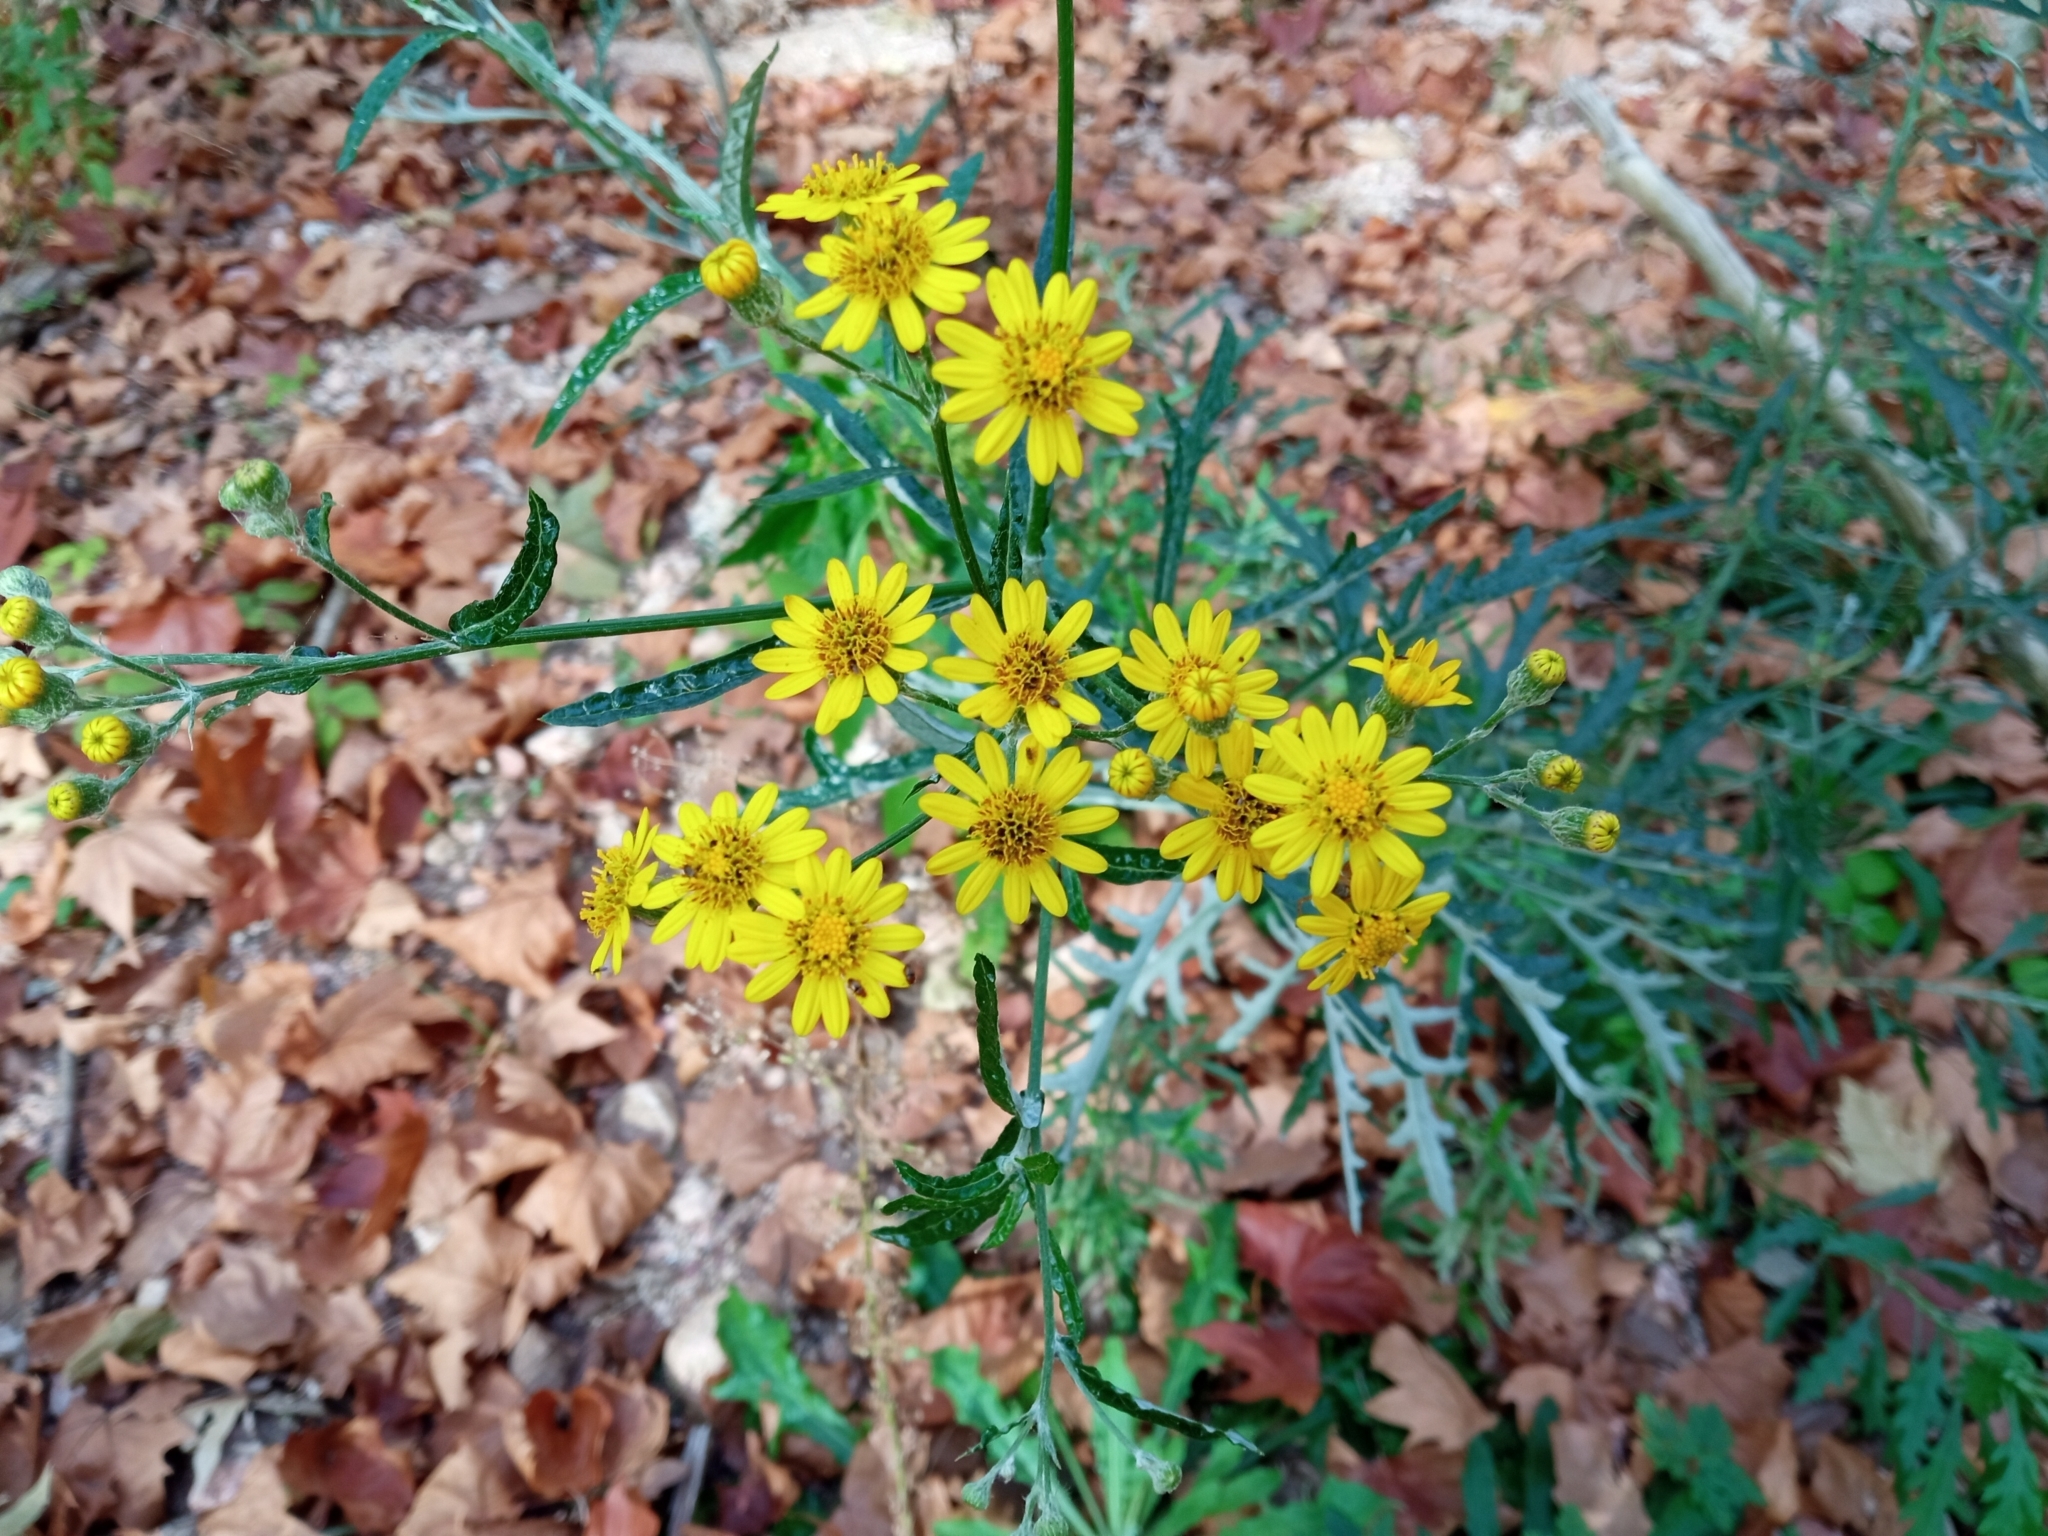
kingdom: Plantae
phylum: Tracheophyta
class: Magnoliopsida
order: Asterales
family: Asteraceae
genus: Senecio
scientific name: Senecio pterophorus
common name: Shoddy ragwort
